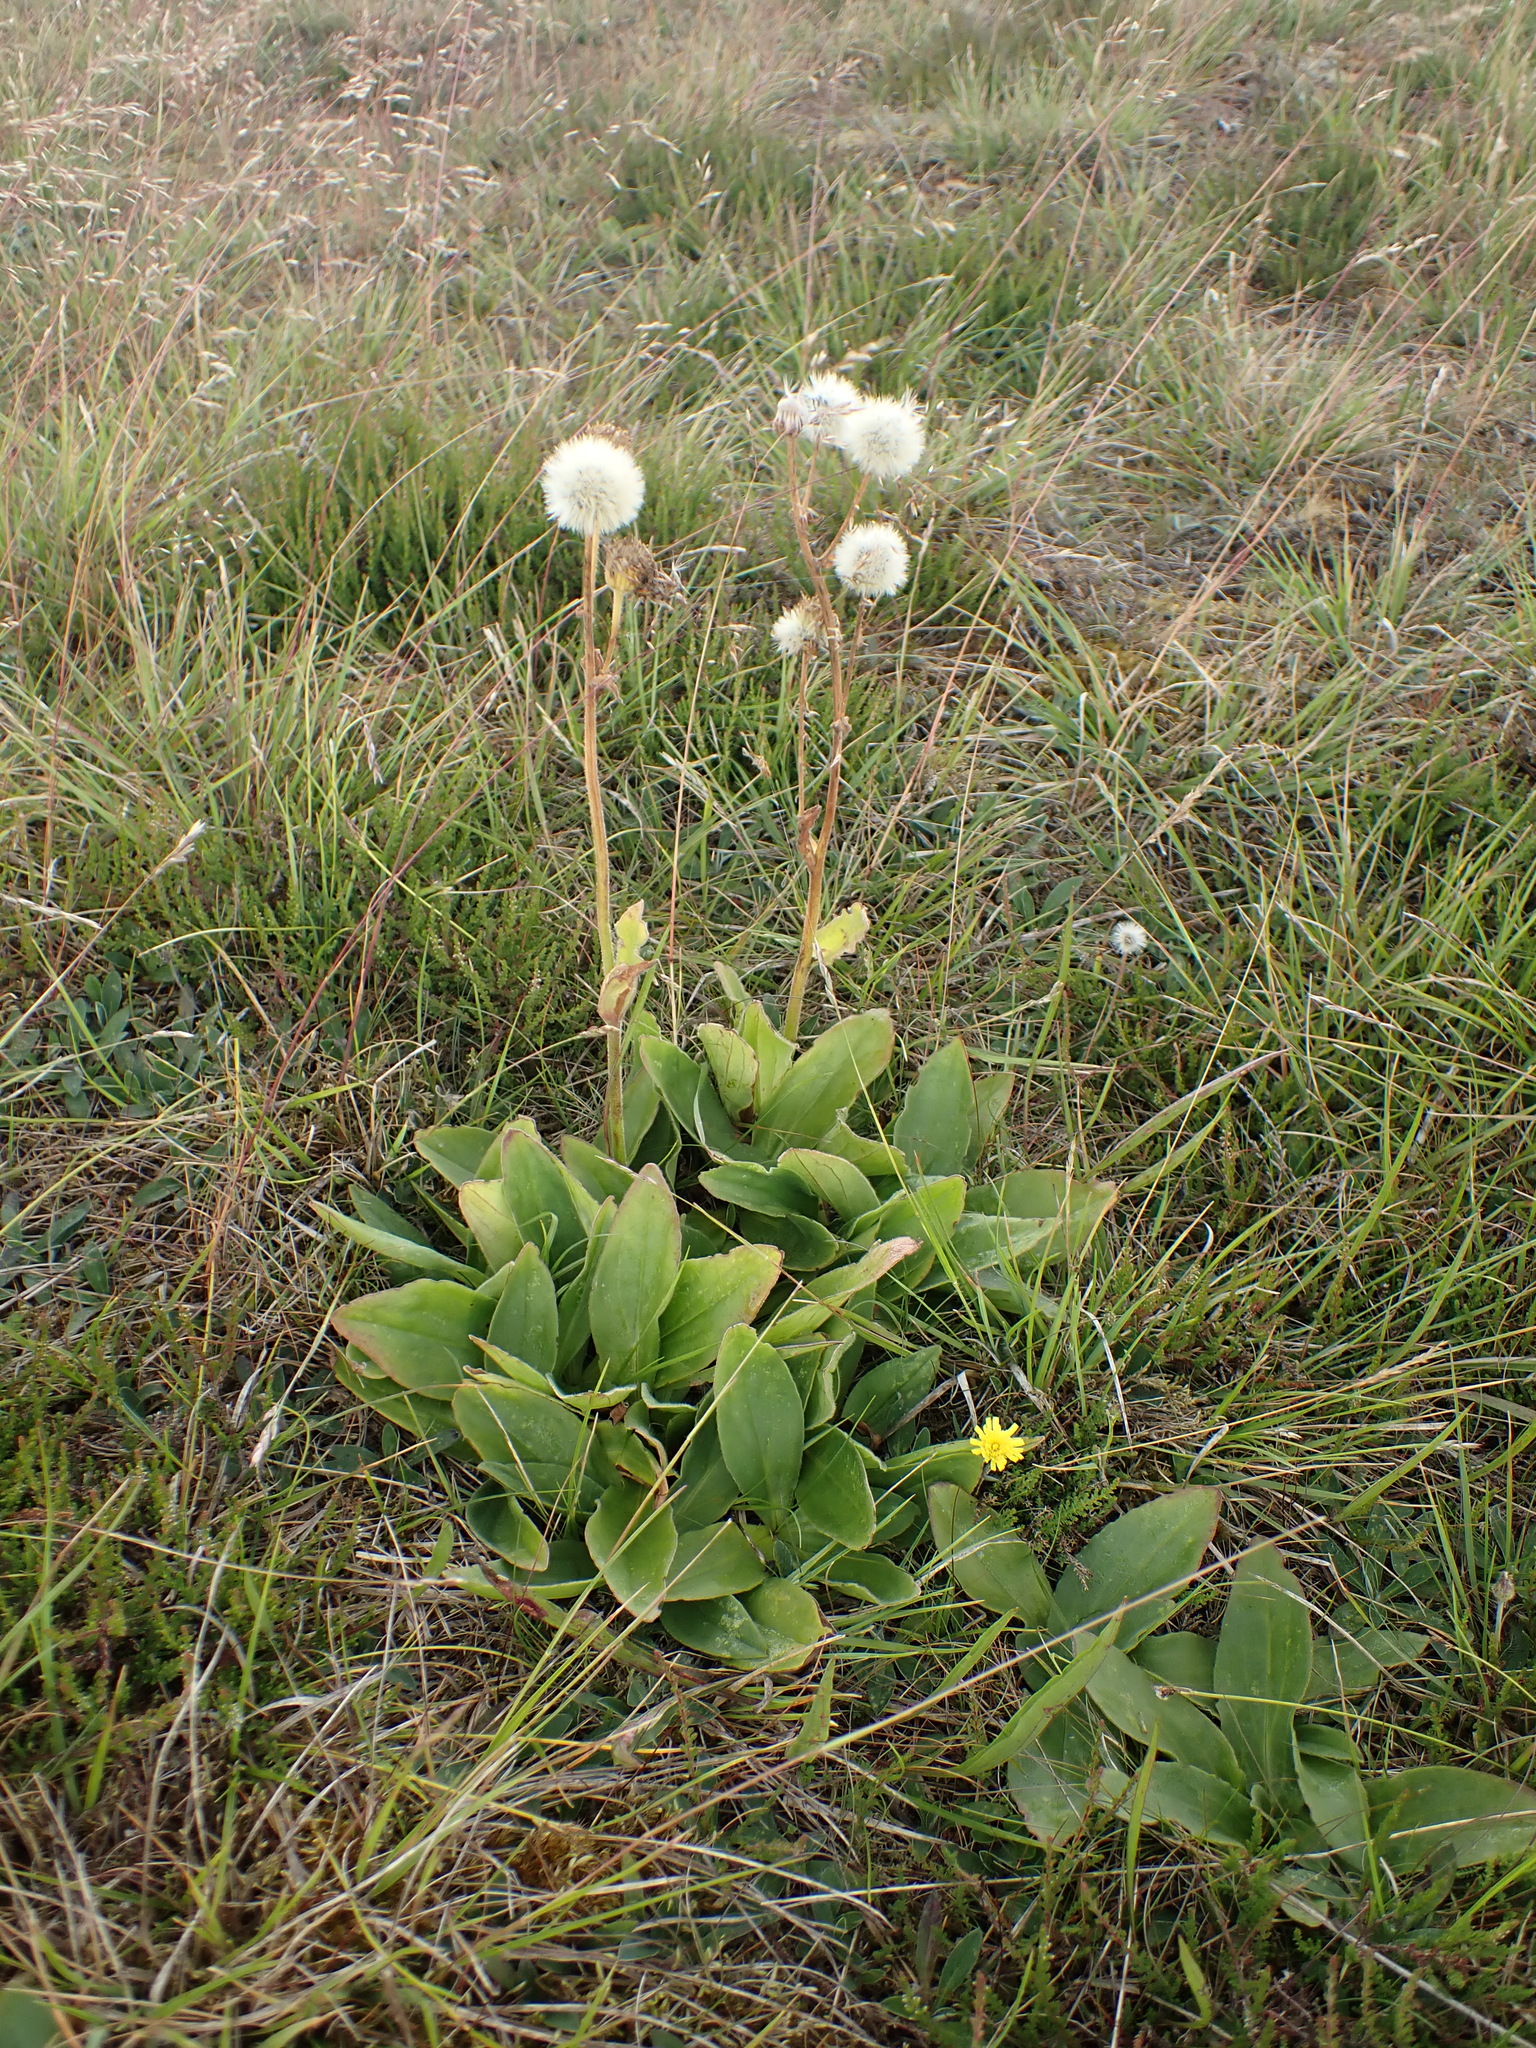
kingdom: Plantae
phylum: Tracheophyta
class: Magnoliopsida
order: Asterales
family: Asteraceae
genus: Arnica
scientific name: Arnica montana
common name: Leopard's bane
